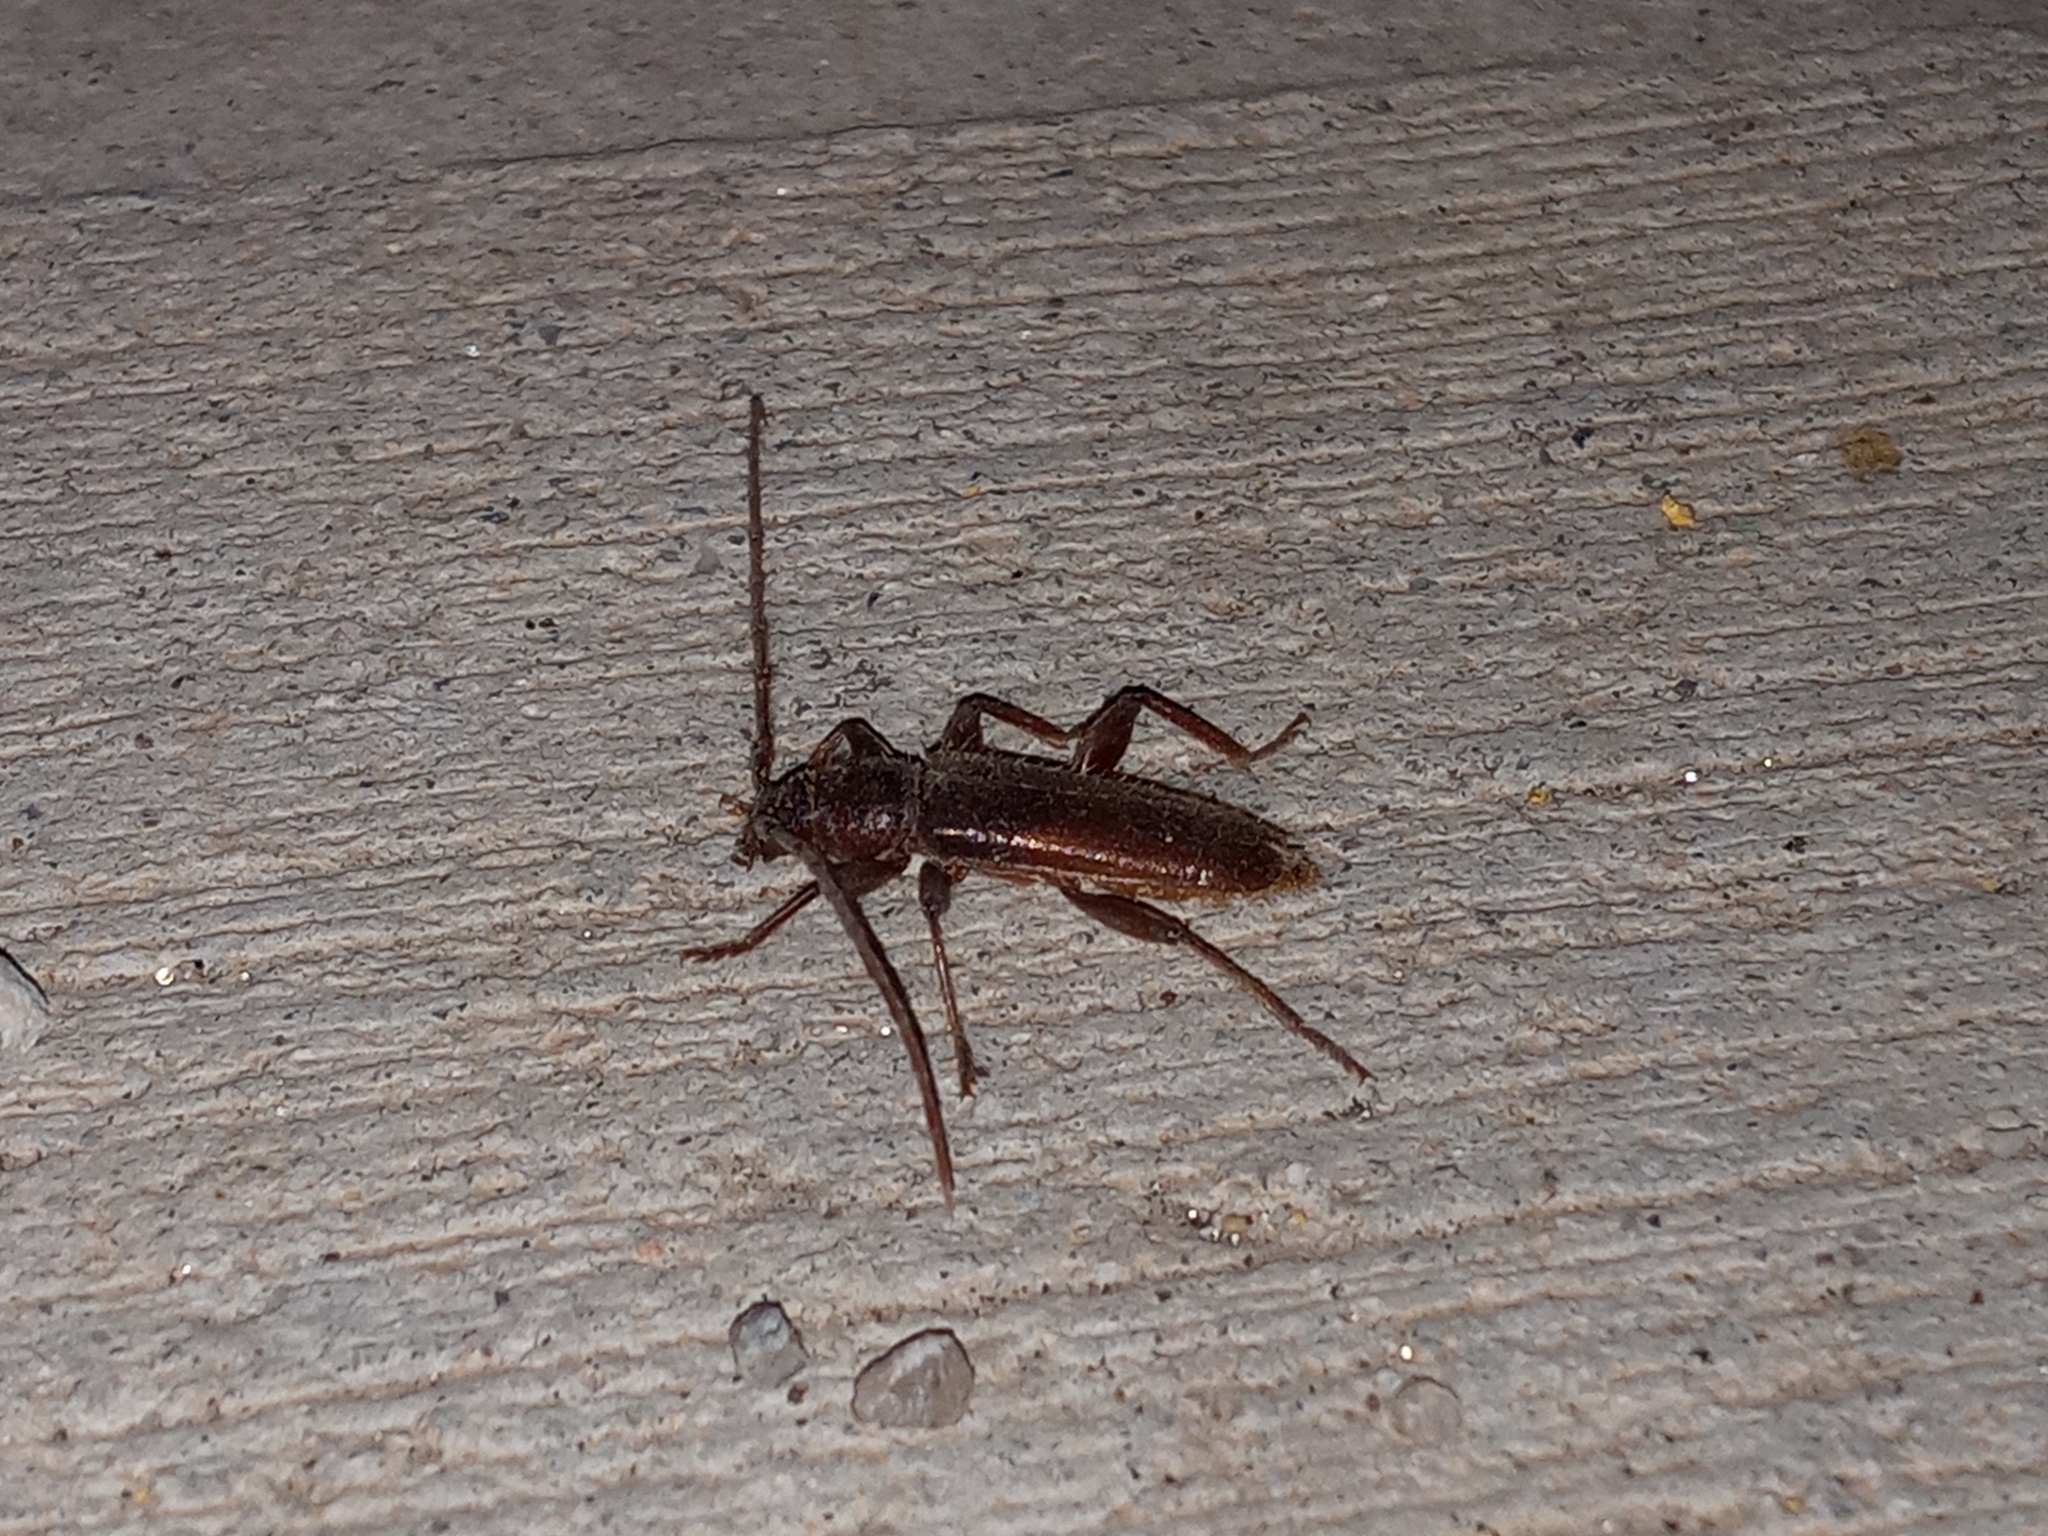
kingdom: Animalia
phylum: Arthropoda
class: Insecta
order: Coleoptera
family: Cerambycidae
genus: Meganoplium
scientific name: Meganoplium imbelle
